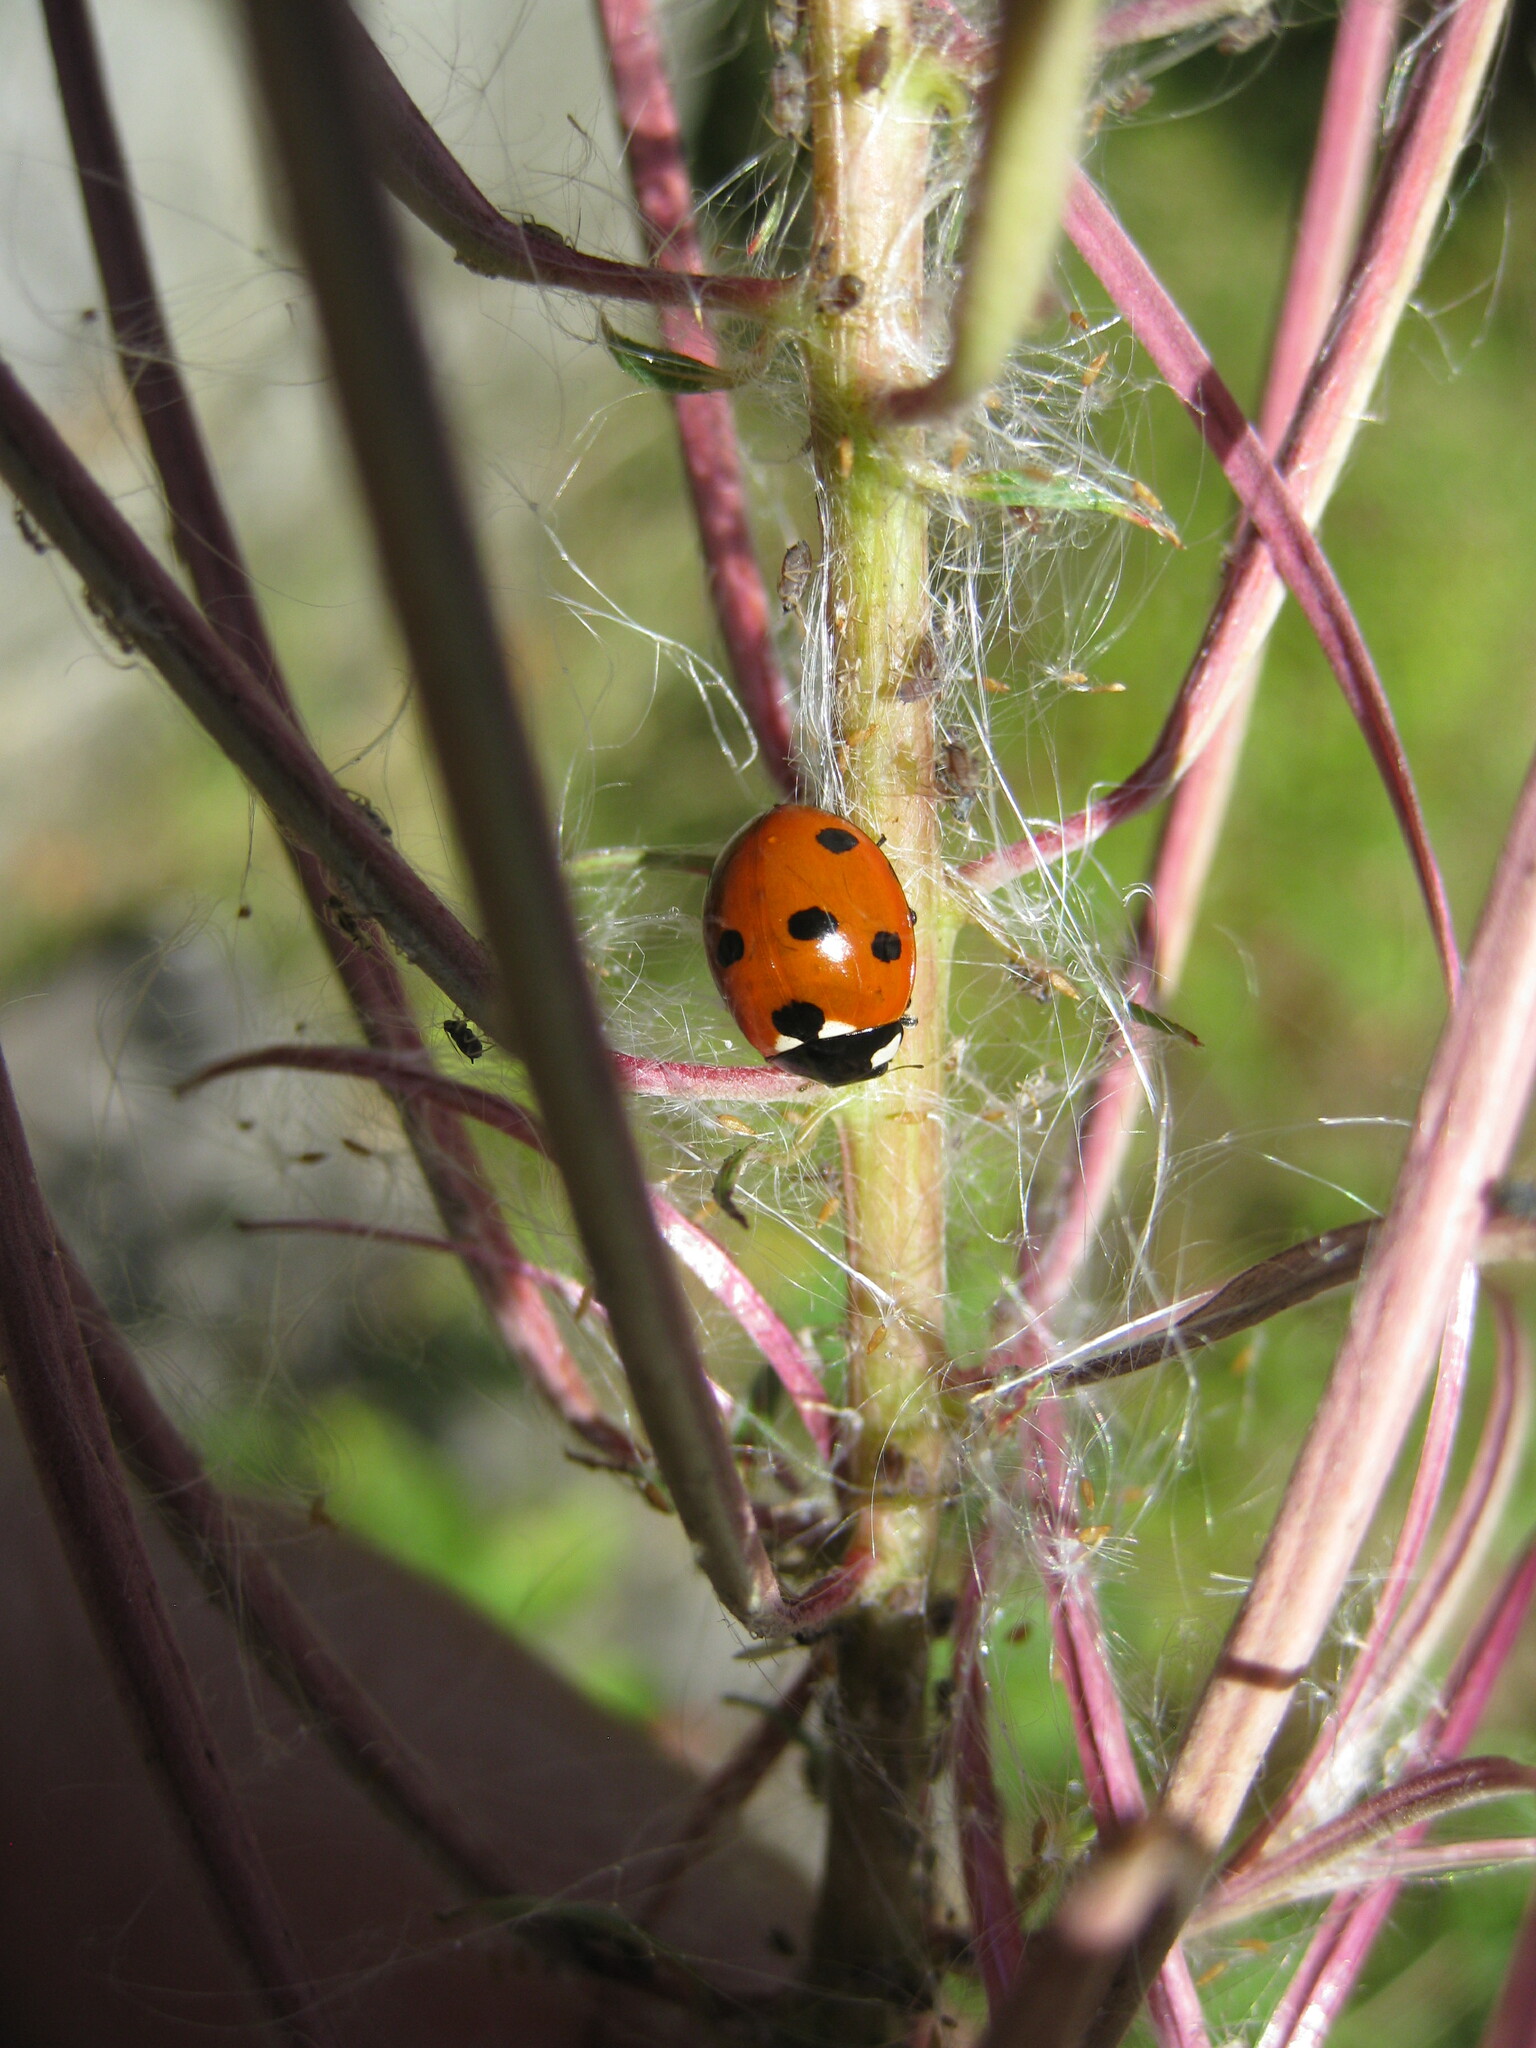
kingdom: Animalia
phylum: Arthropoda
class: Insecta
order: Coleoptera
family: Coccinellidae
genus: Coccinella
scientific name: Coccinella septempunctata
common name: Sevenspotted lady beetle
